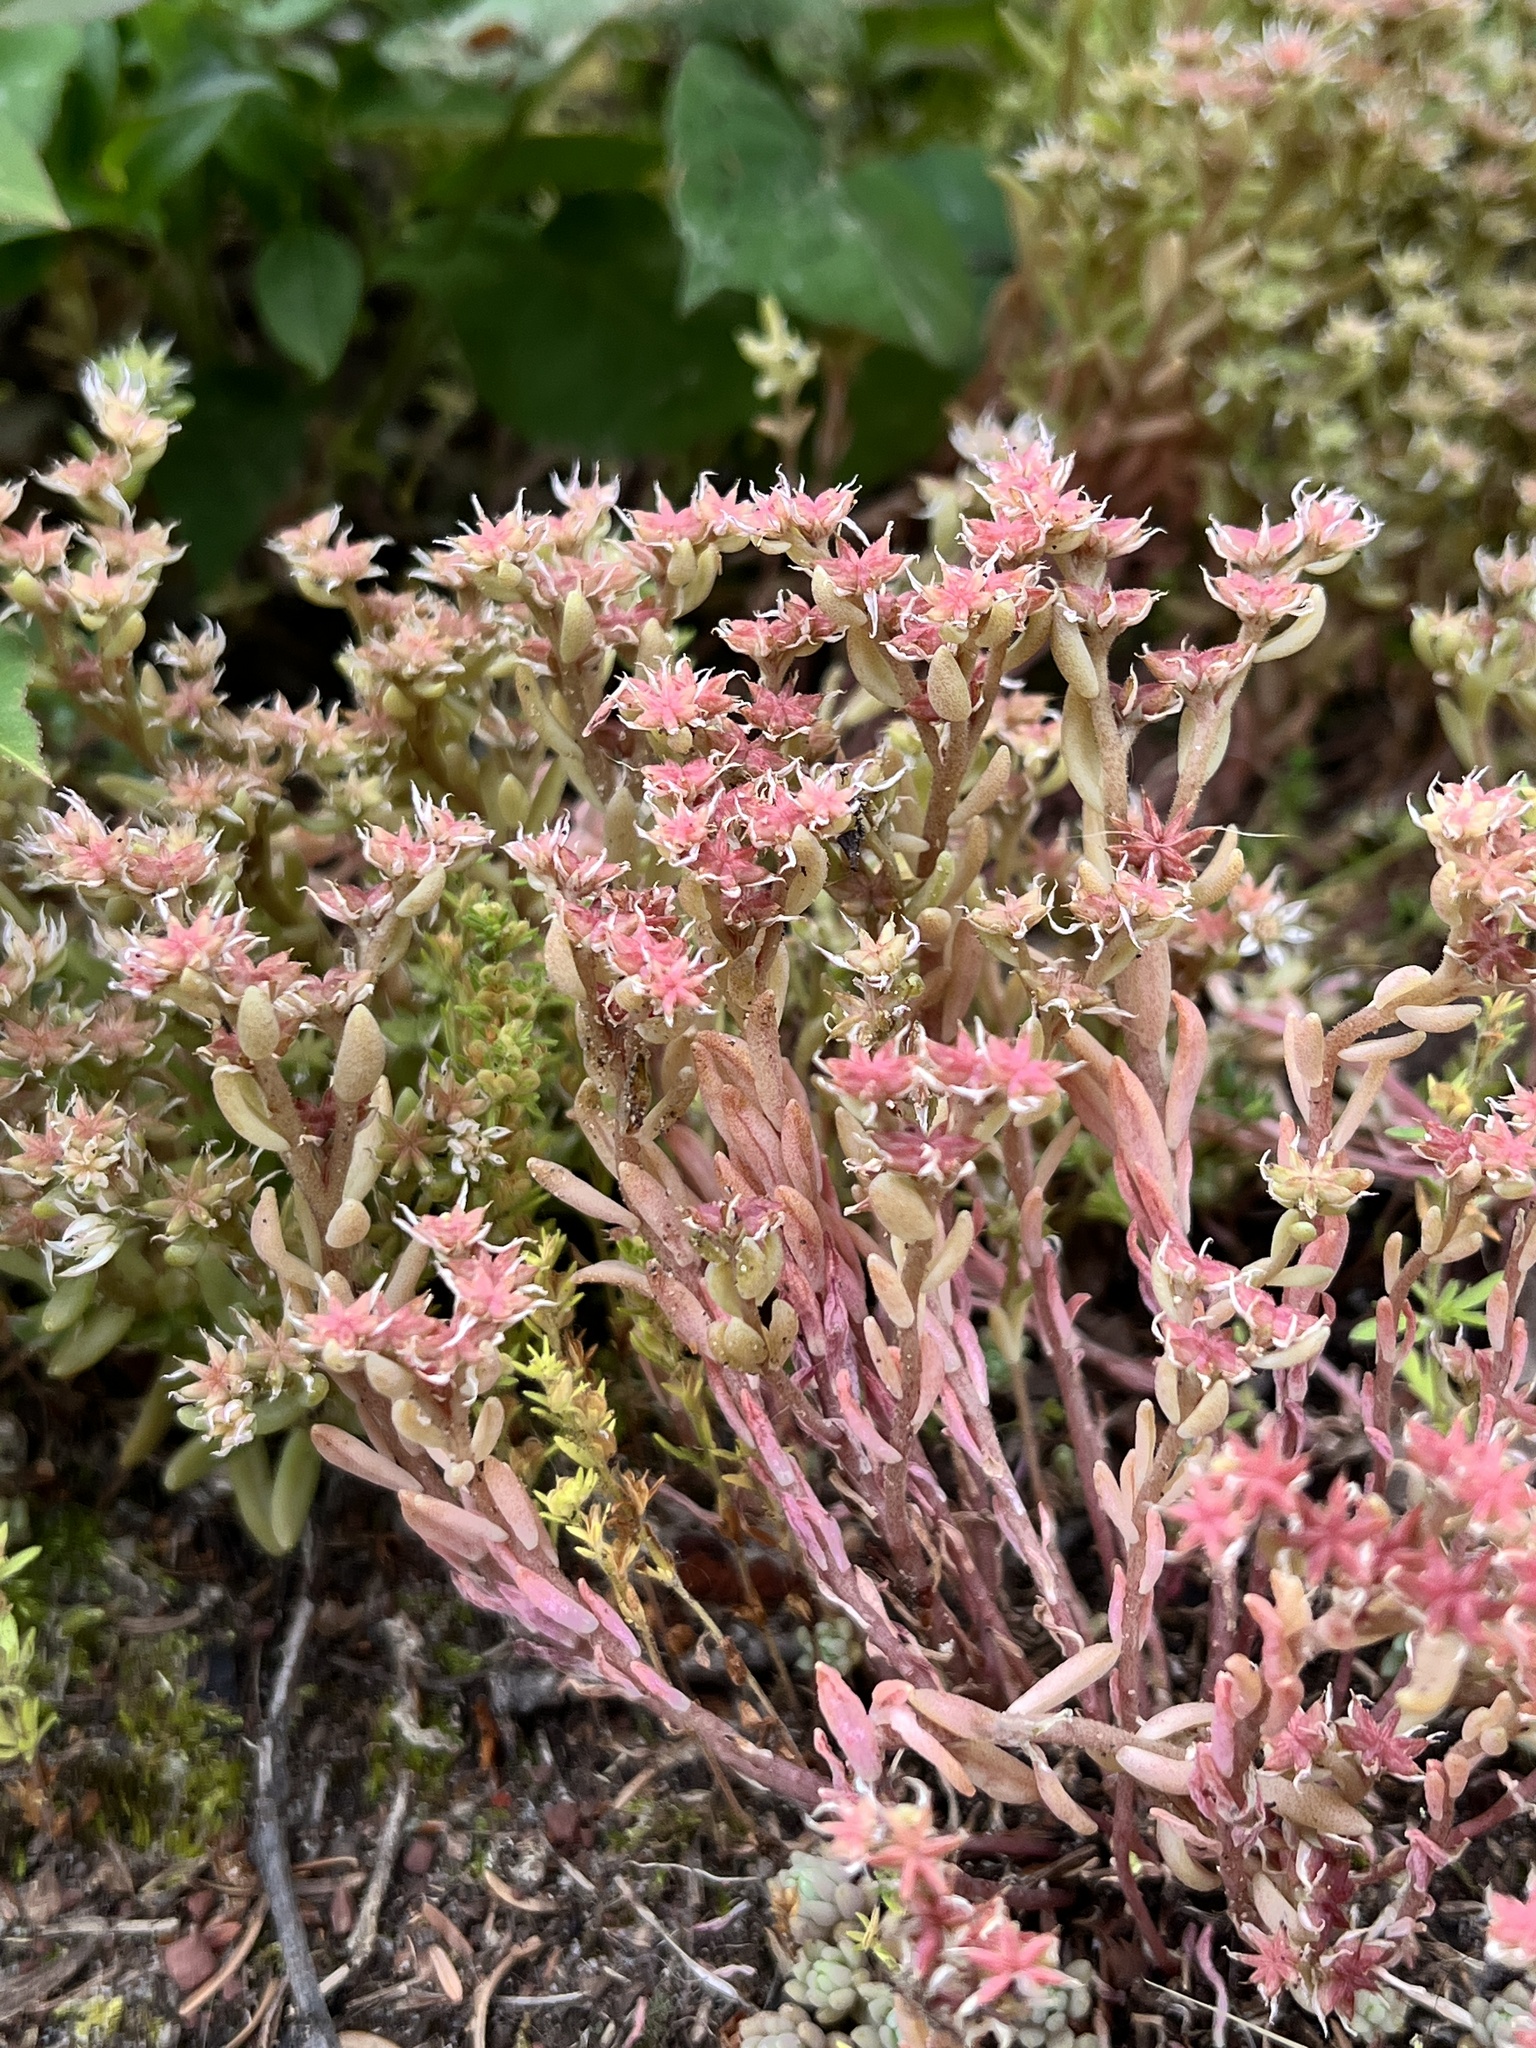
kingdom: Plantae
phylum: Tracheophyta
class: Magnoliopsida
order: Saxifragales
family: Crassulaceae
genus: Sedum
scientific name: Sedum hispanicum
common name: Spanish stonecrop
